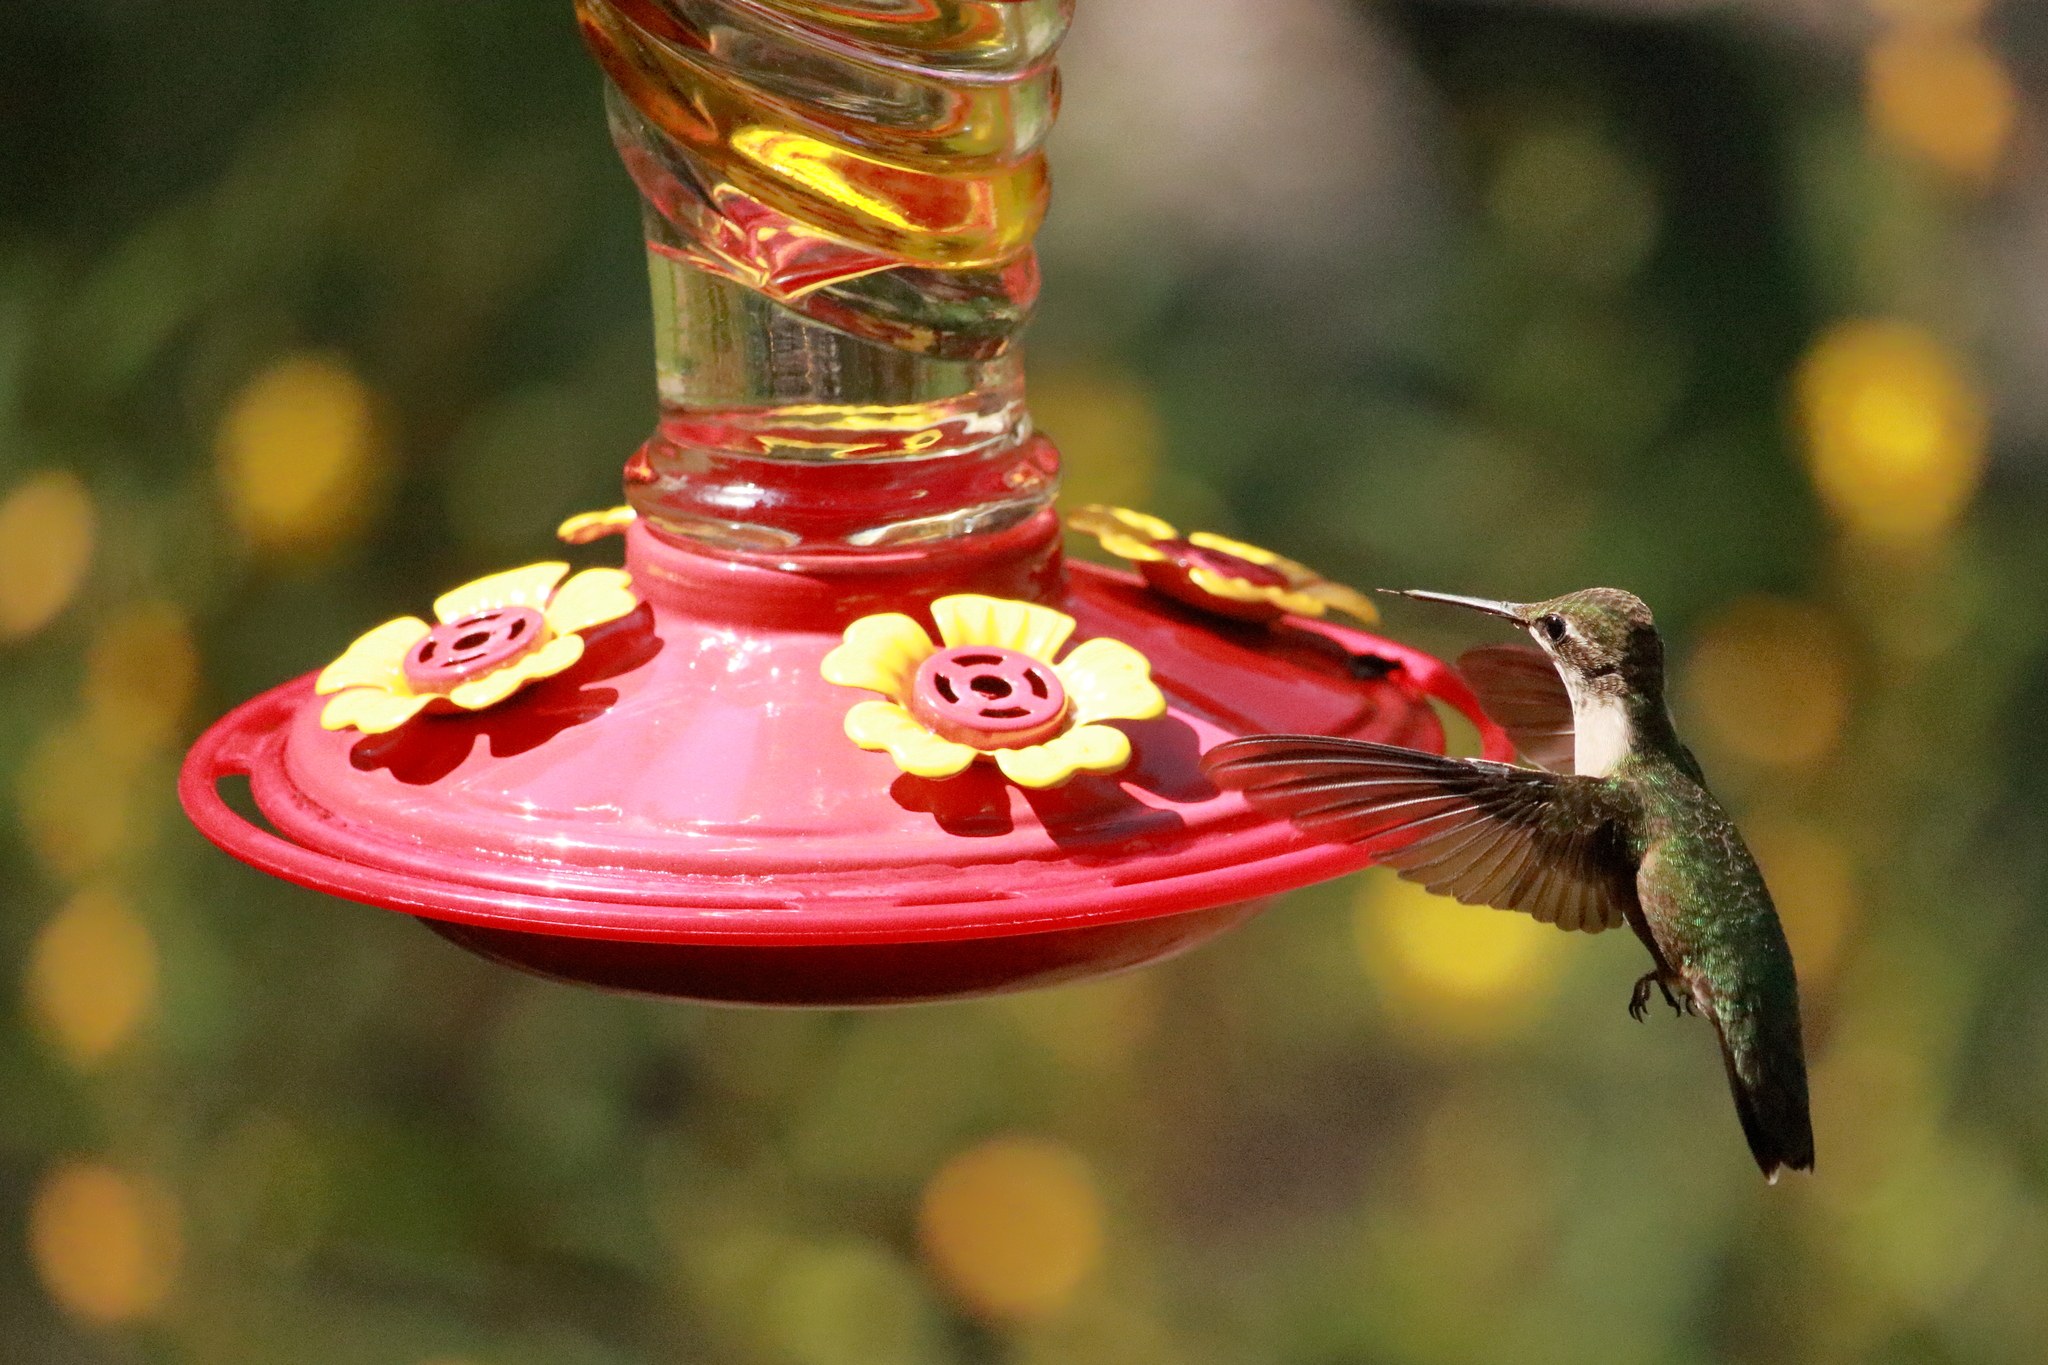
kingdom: Animalia
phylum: Chordata
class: Aves
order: Apodiformes
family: Trochilidae
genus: Archilochus
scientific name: Archilochus colubris
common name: Ruby-throated hummingbird
